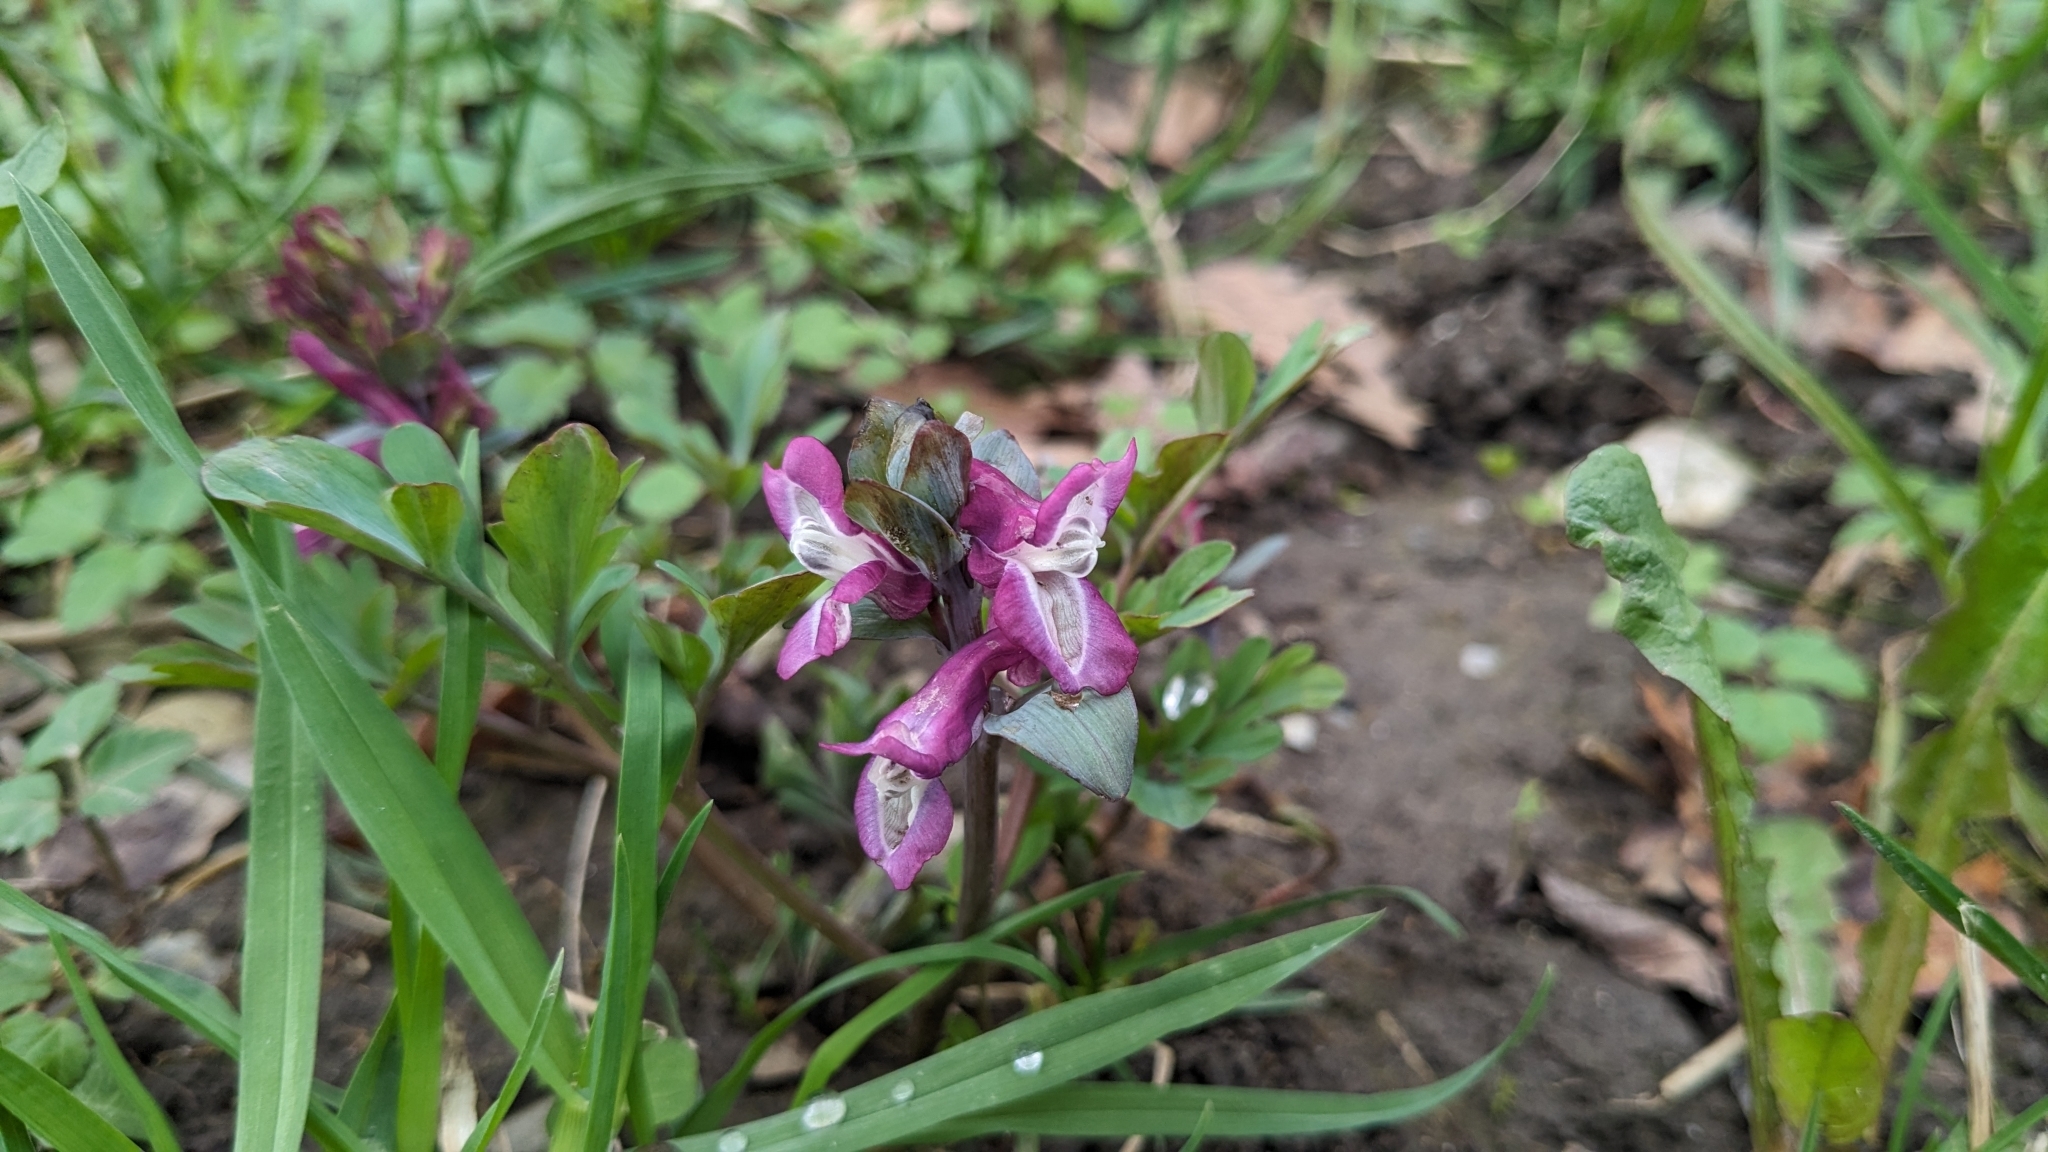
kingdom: Plantae
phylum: Tracheophyta
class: Magnoliopsida
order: Ranunculales
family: Papaveraceae
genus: Corydalis
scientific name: Corydalis cava
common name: Hollowroot
